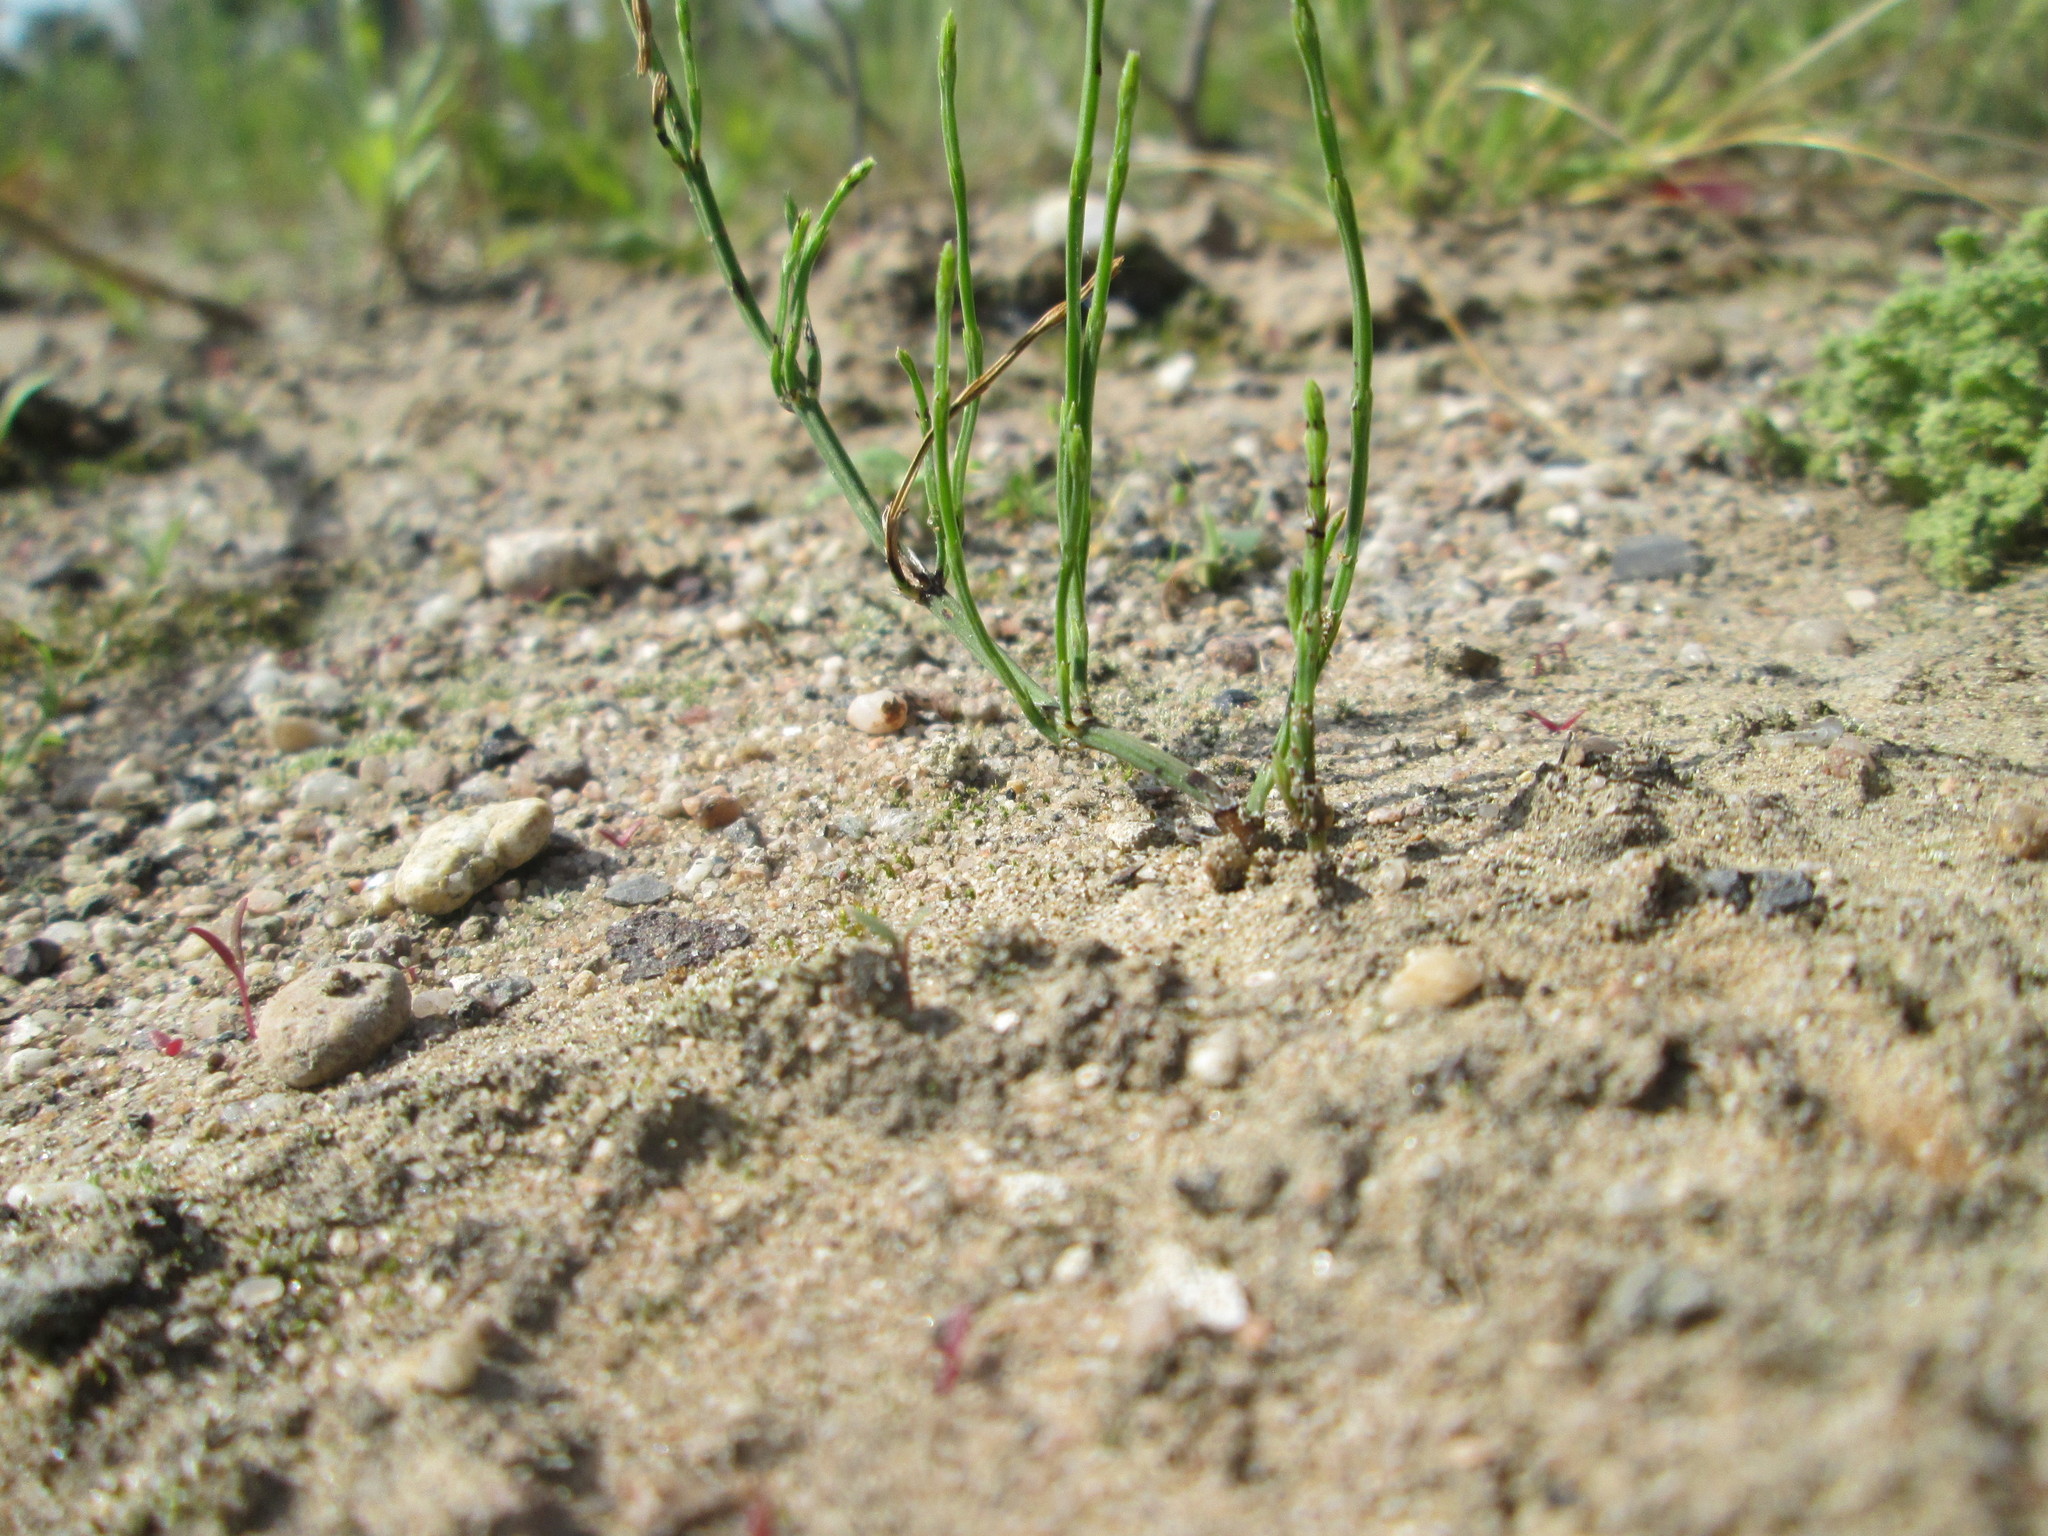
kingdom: Plantae
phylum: Tracheophyta
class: Polypodiopsida
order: Equisetales
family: Equisetaceae
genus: Equisetum
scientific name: Equisetum arvense
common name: Field horsetail
